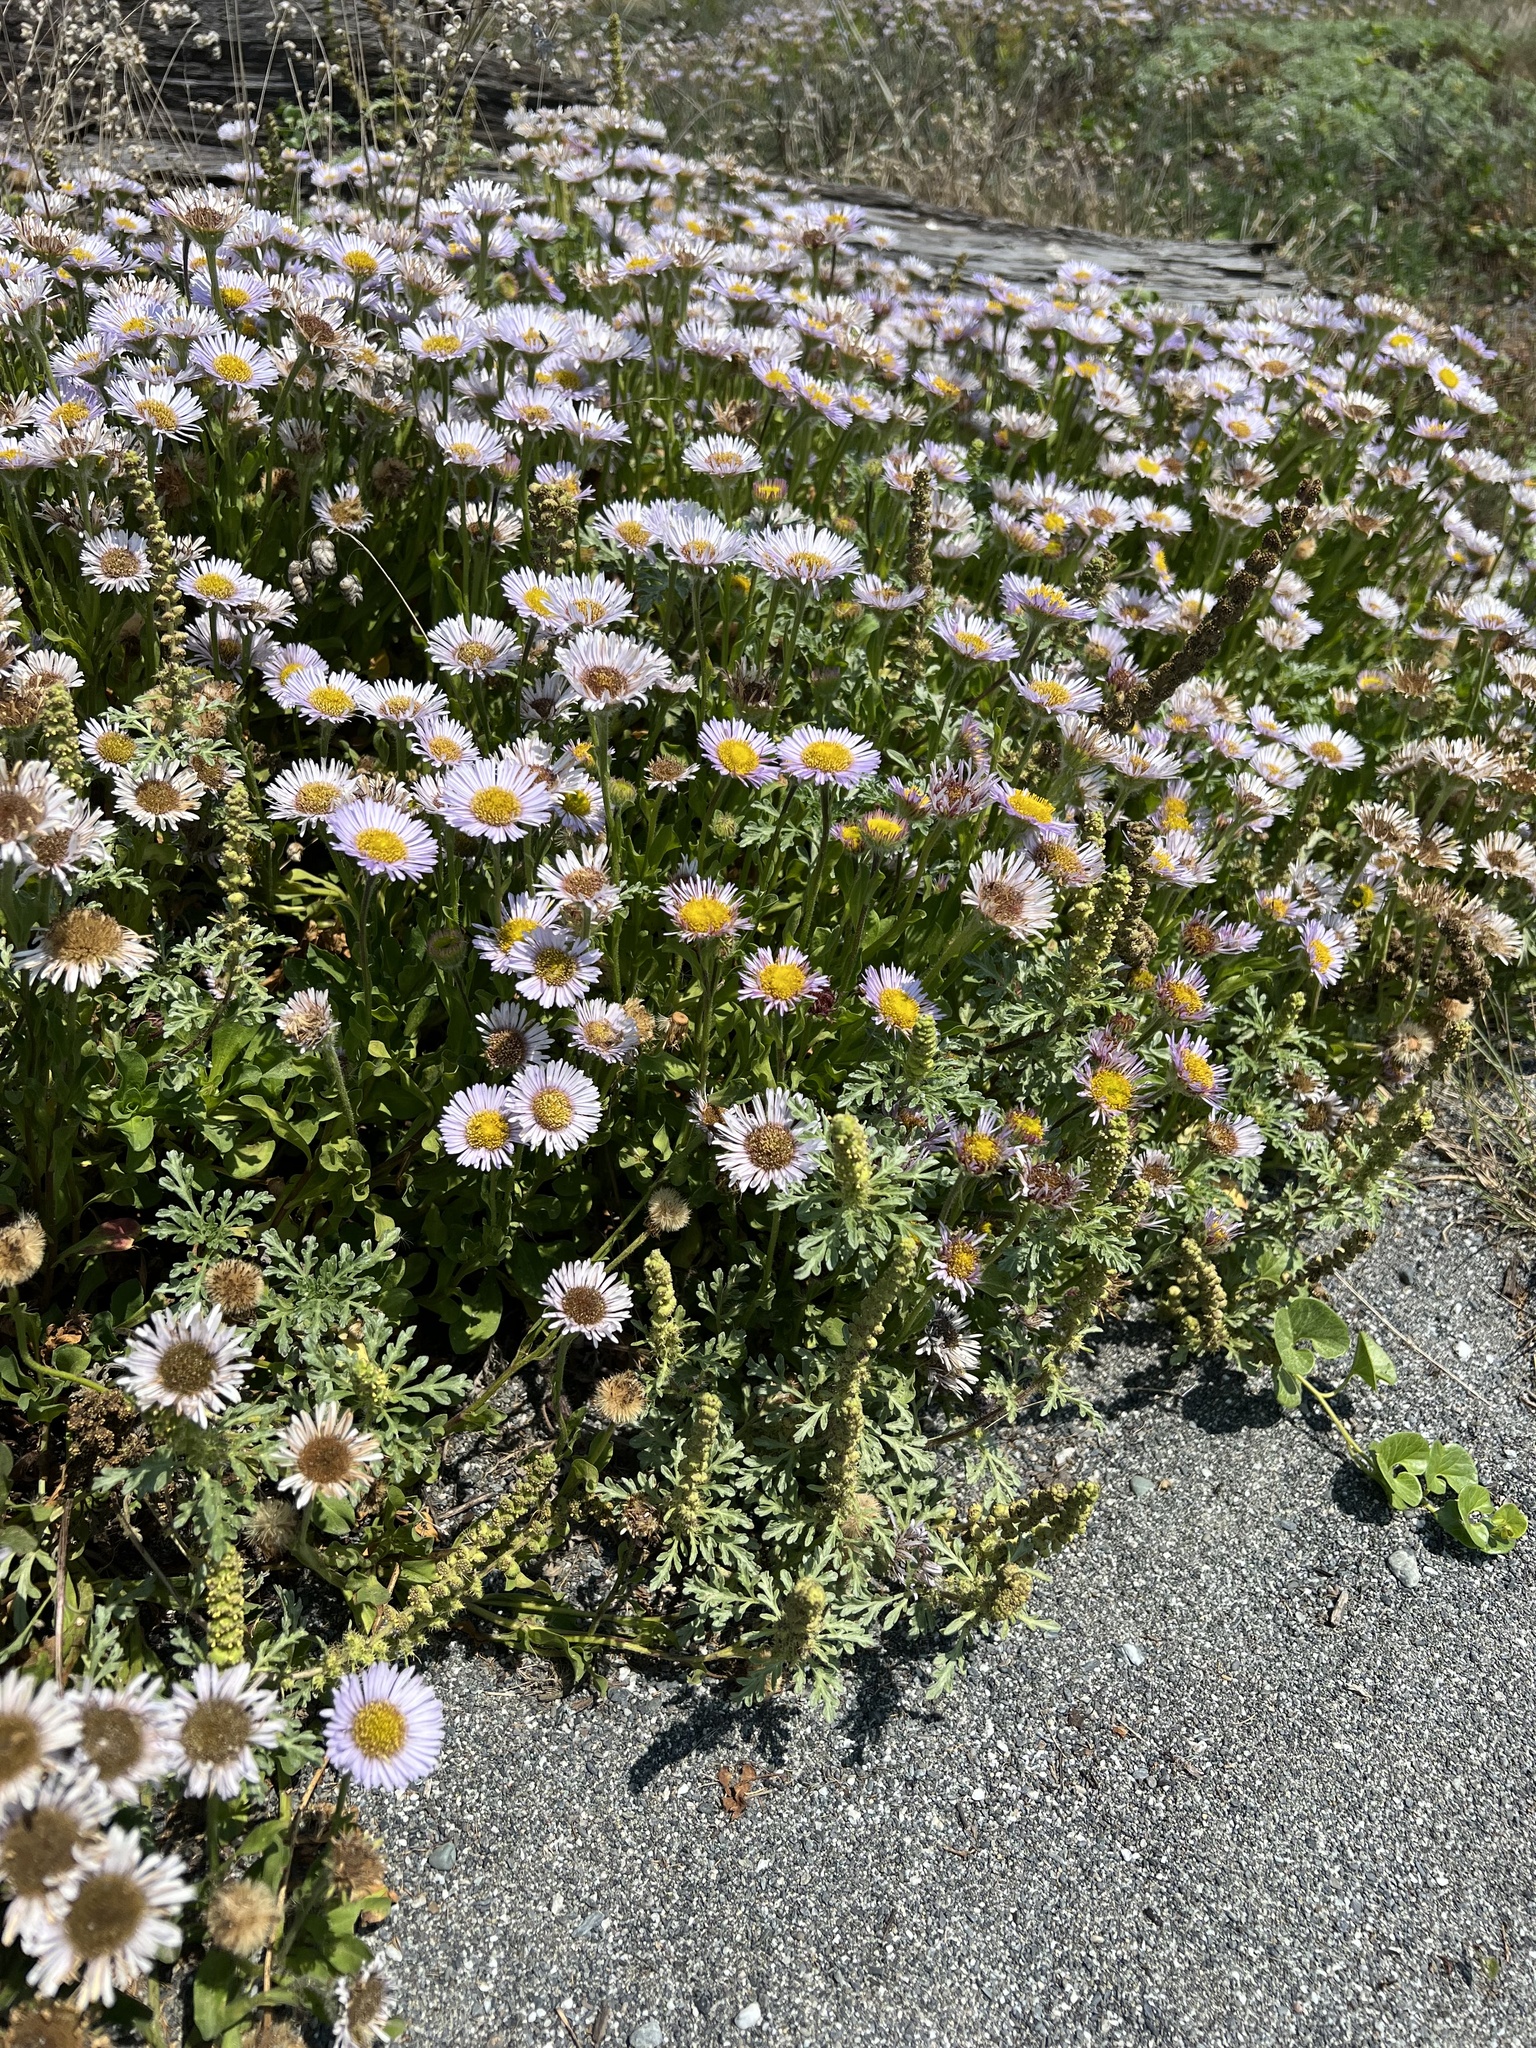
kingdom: Plantae
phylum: Tracheophyta
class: Magnoliopsida
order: Asterales
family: Asteraceae
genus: Erigeron
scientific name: Erigeron glaucus
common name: Seaside daisy
